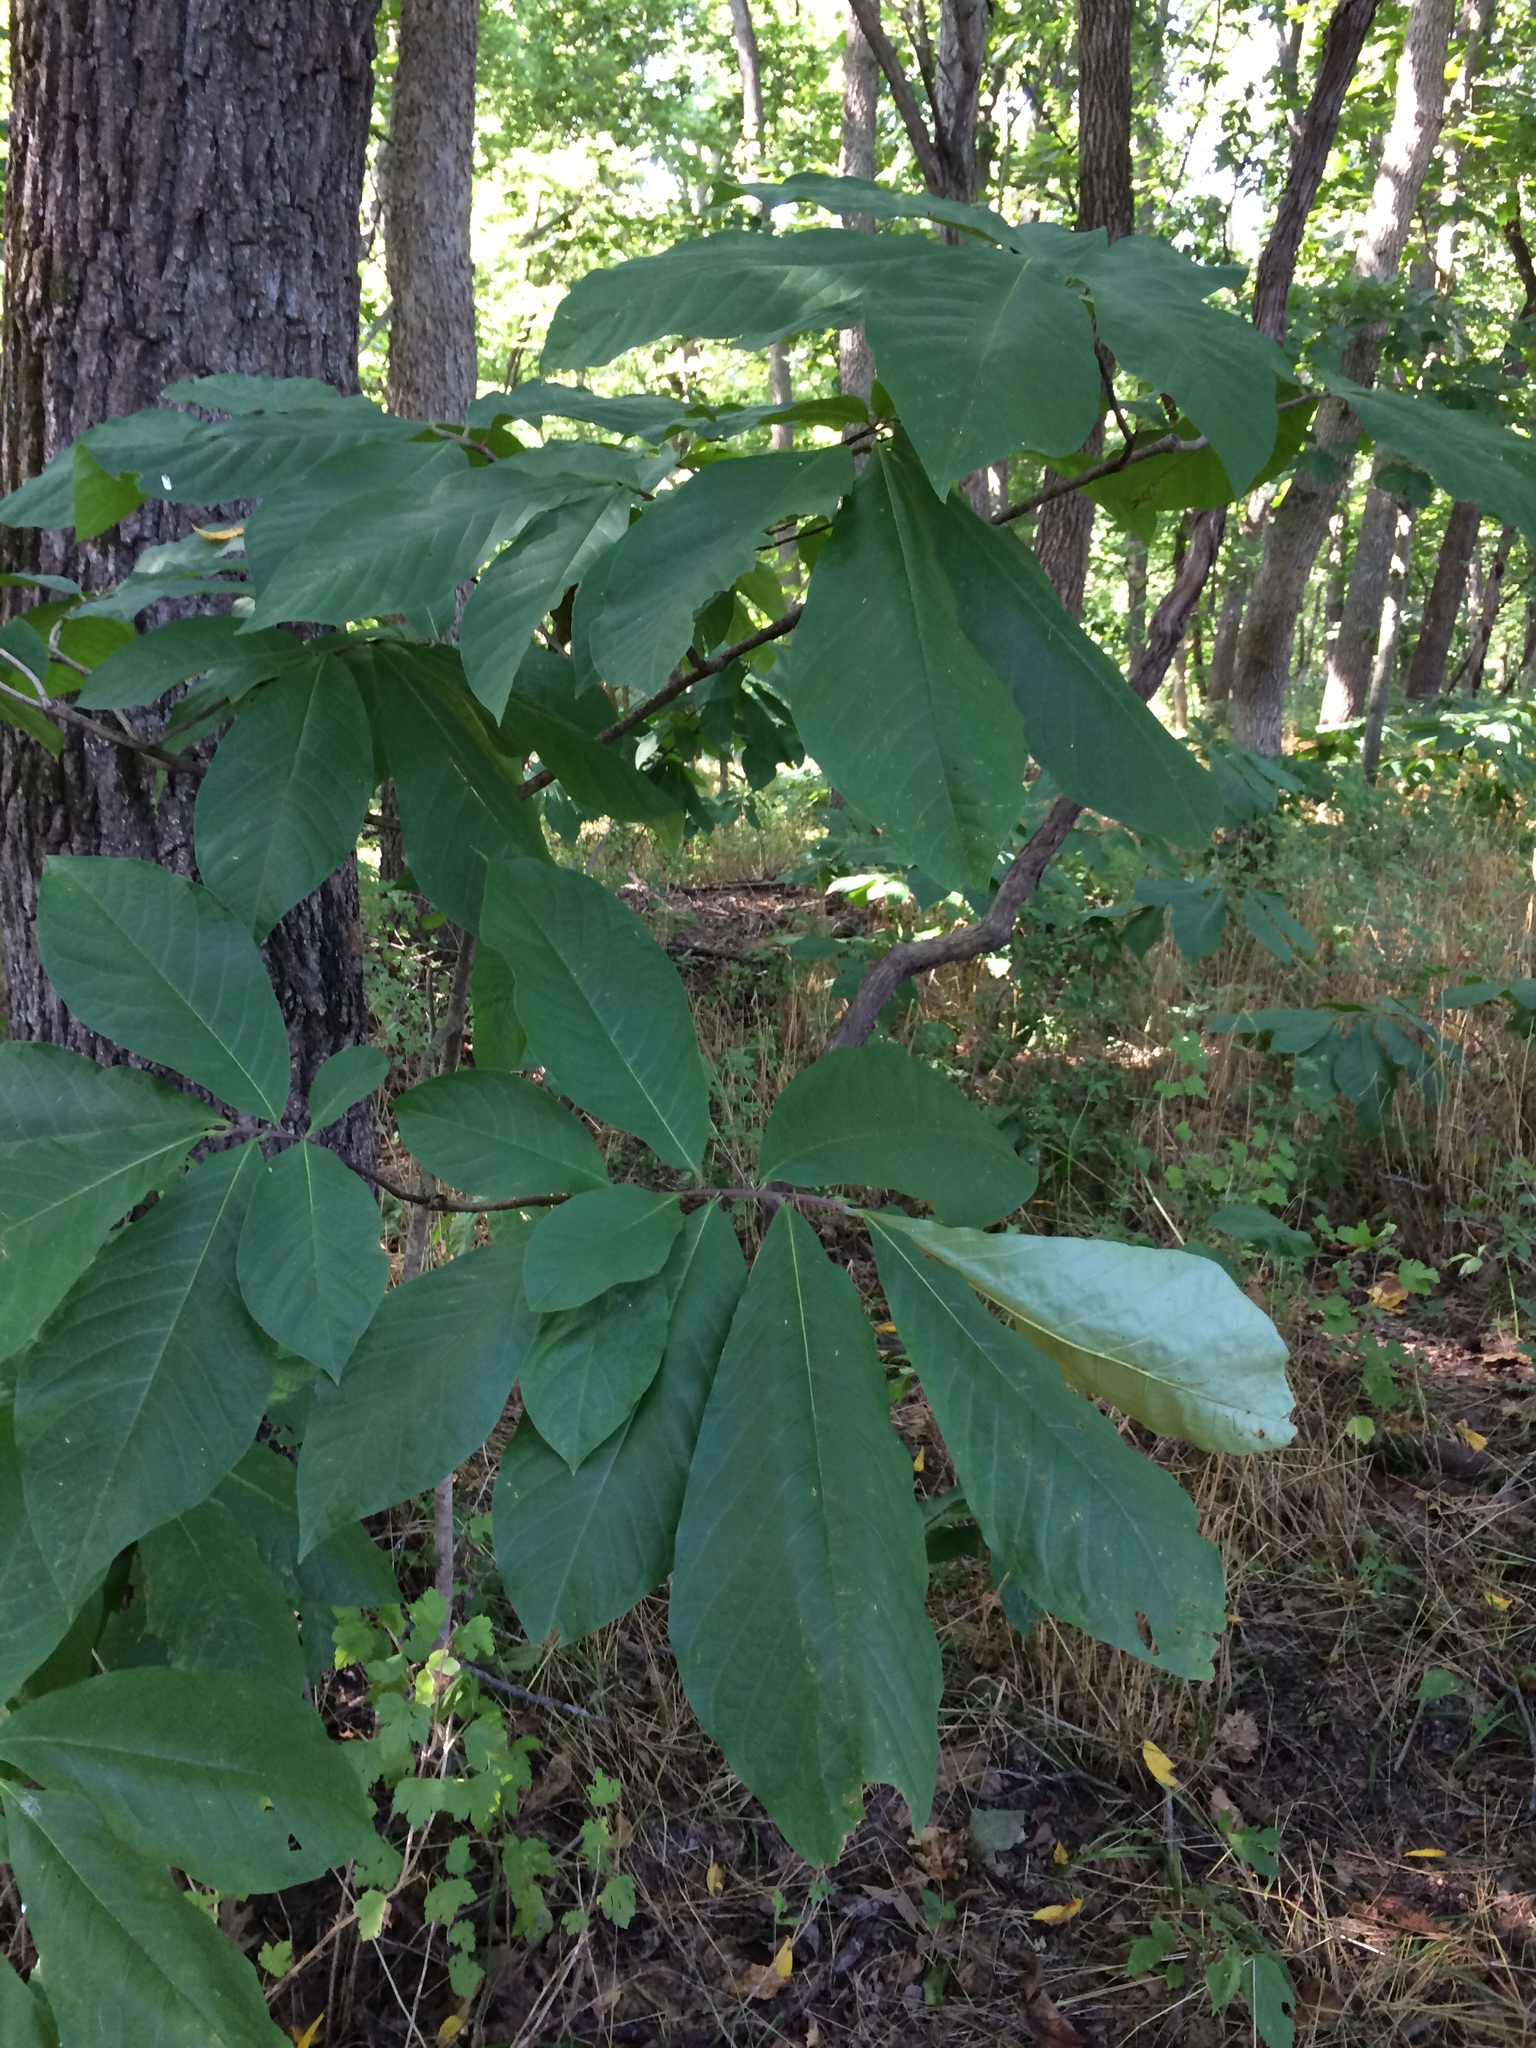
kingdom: Plantae
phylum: Tracheophyta
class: Magnoliopsida
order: Magnoliales
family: Annonaceae
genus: Asimina
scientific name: Asimina triloba
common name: Dog-banana
